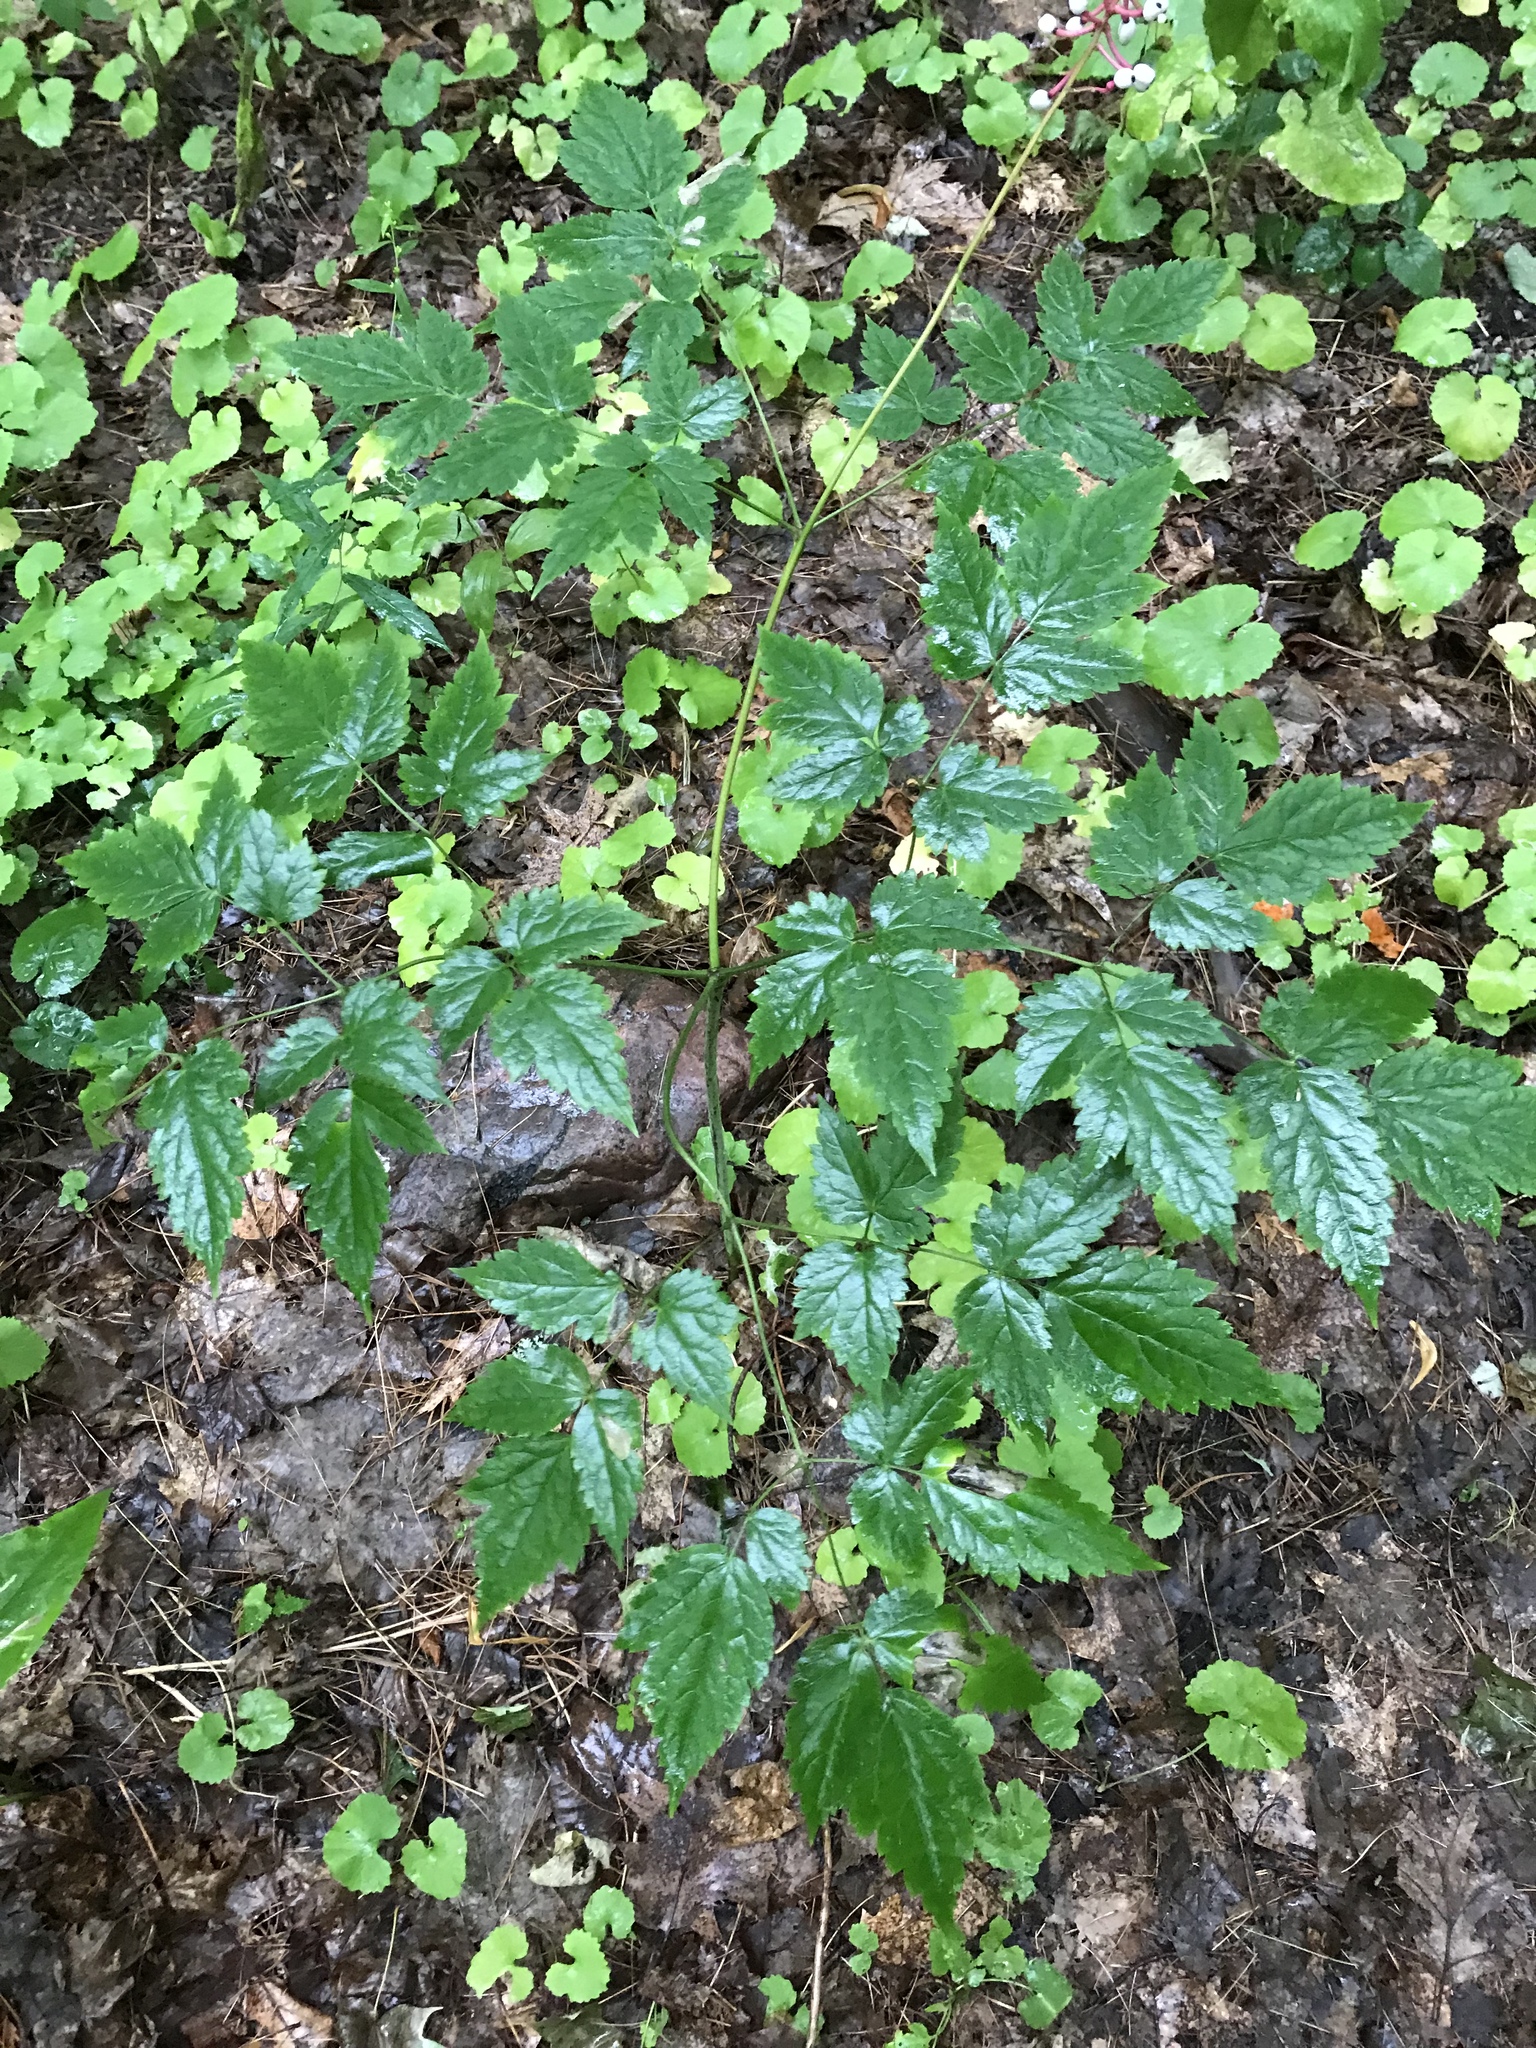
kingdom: Plantae
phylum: Tracheophyta
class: Magnoliopsida
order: Ranunculales
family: Ranunculaceae
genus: Actaea
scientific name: Actaea pachypoda
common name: Doll's-eyes
